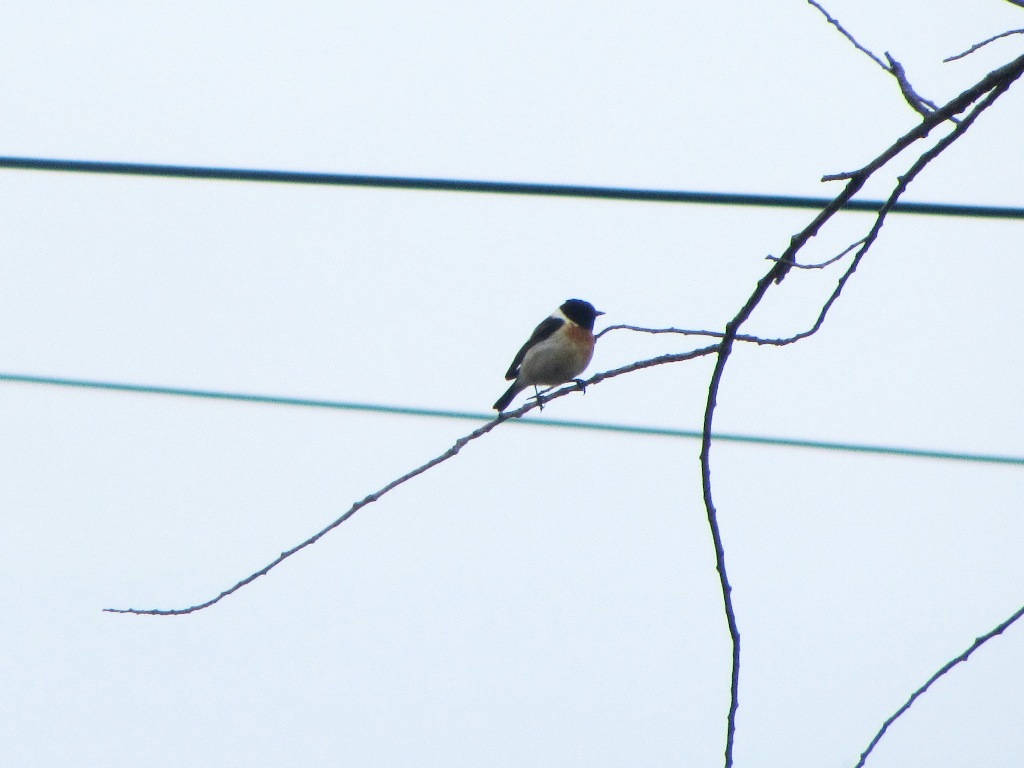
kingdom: Animalia
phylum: Chordata
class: Aves
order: Passeriformes
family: Muscicapidae
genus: Saxicola
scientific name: Saxicola maurus
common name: Siberian stonechat
